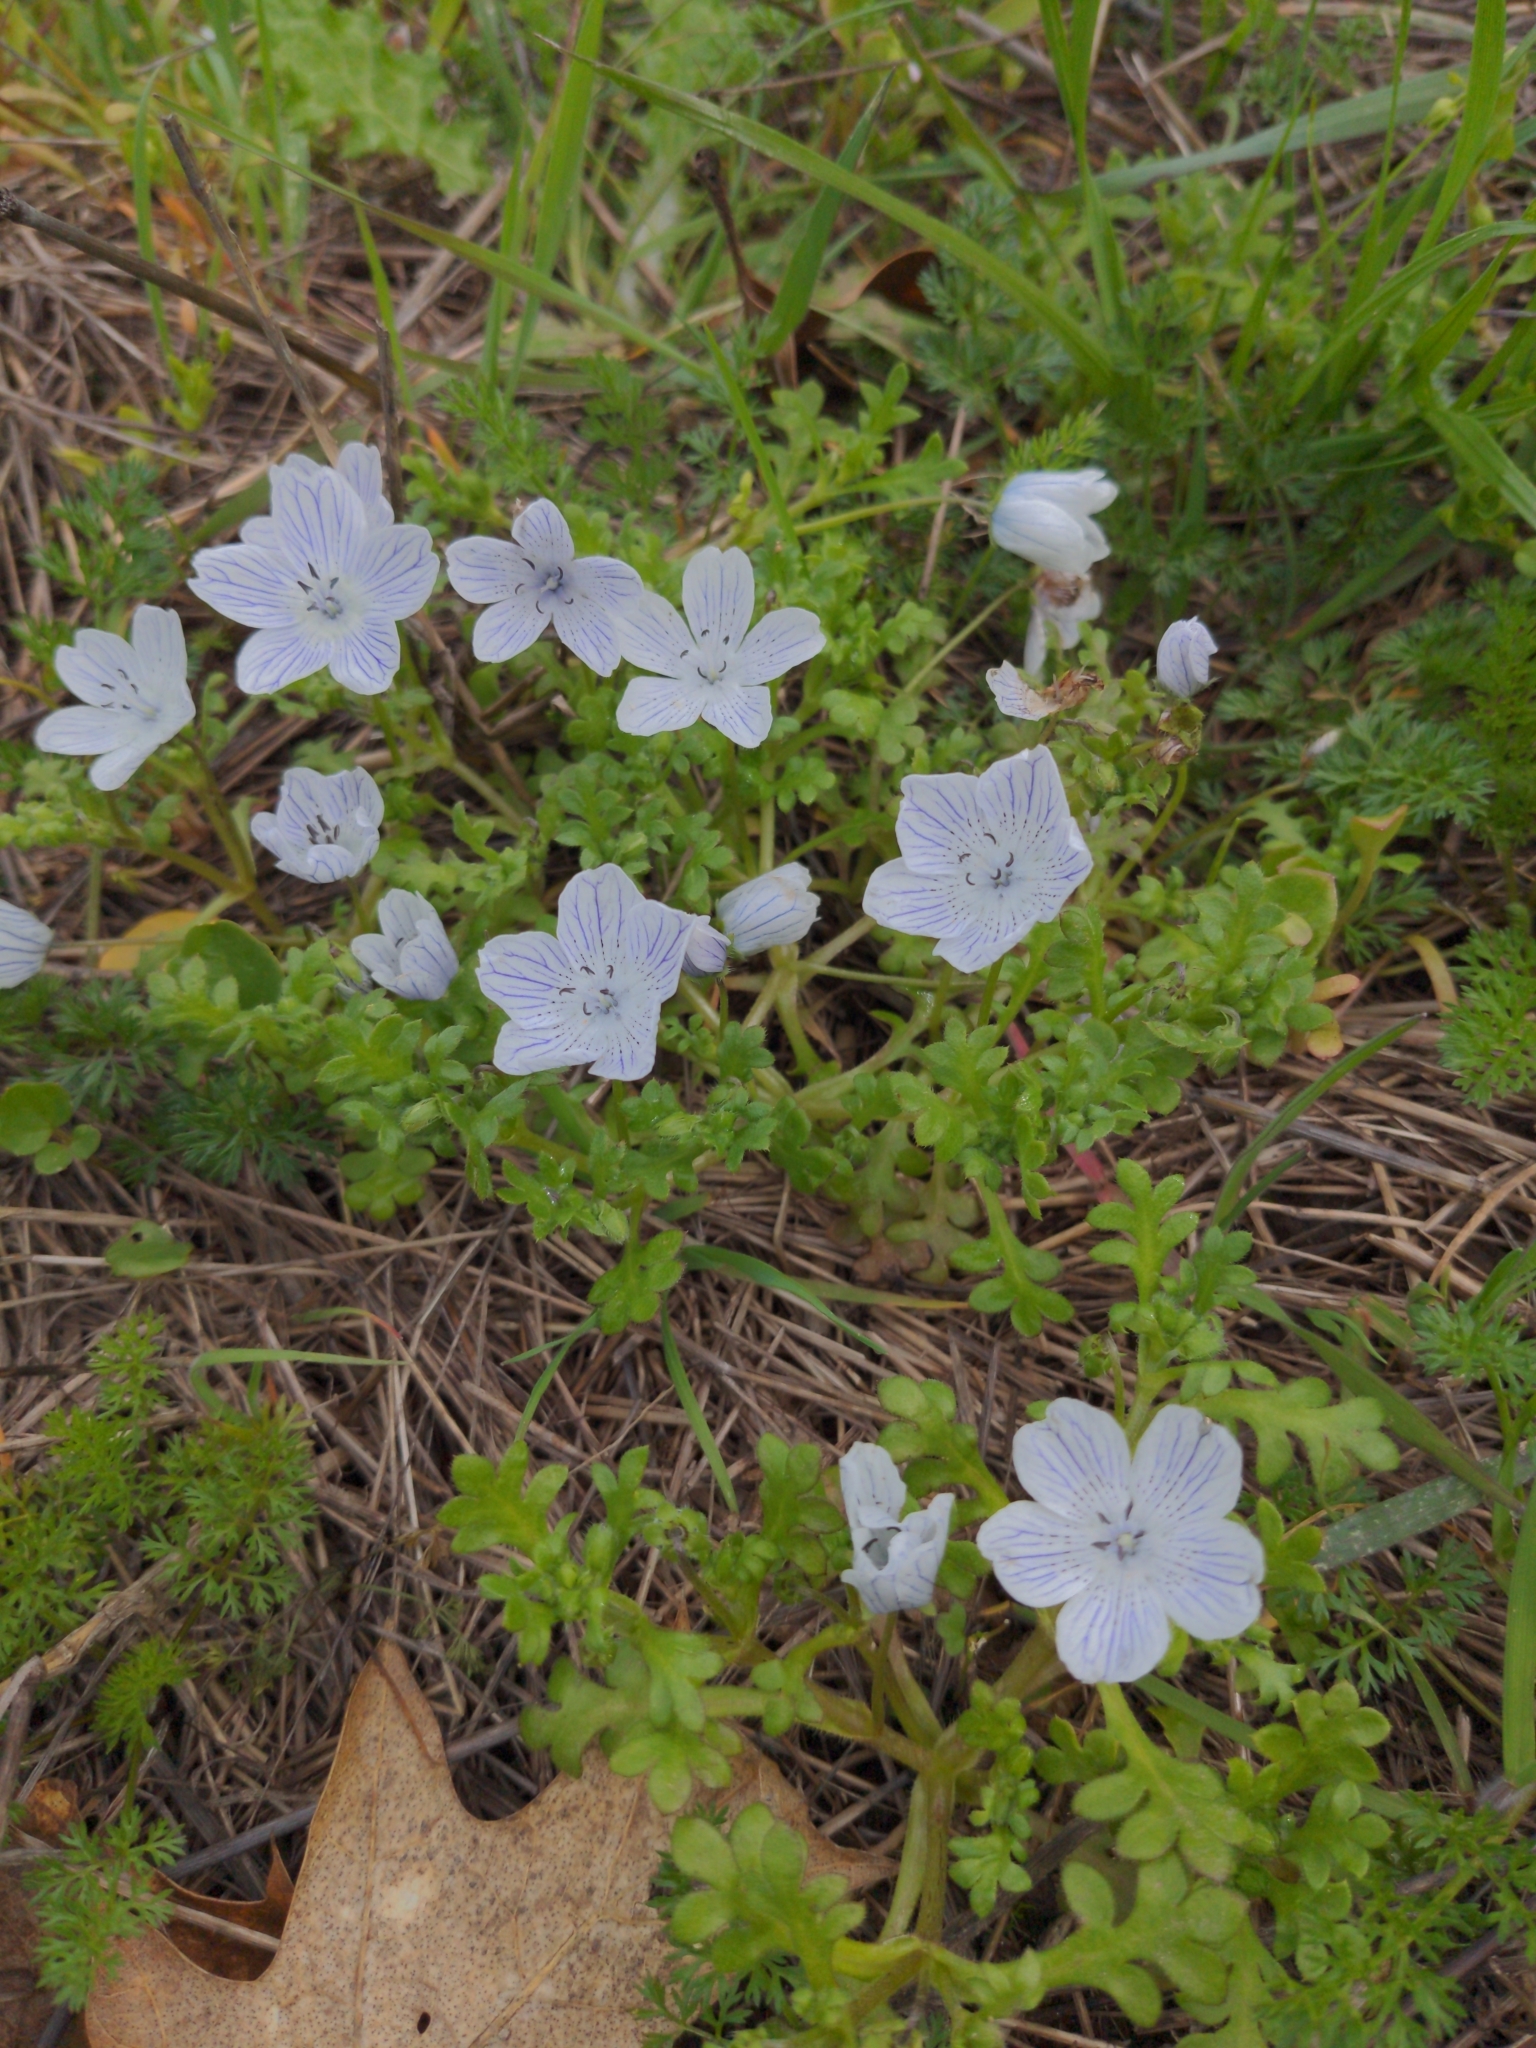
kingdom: Plantae
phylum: Tracheophyta
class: Magnoliopsida
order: Boraginales
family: Hydrophyllaceae
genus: Nemophila
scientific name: Nemophila menziesii
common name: Baby's-blue-eyes
